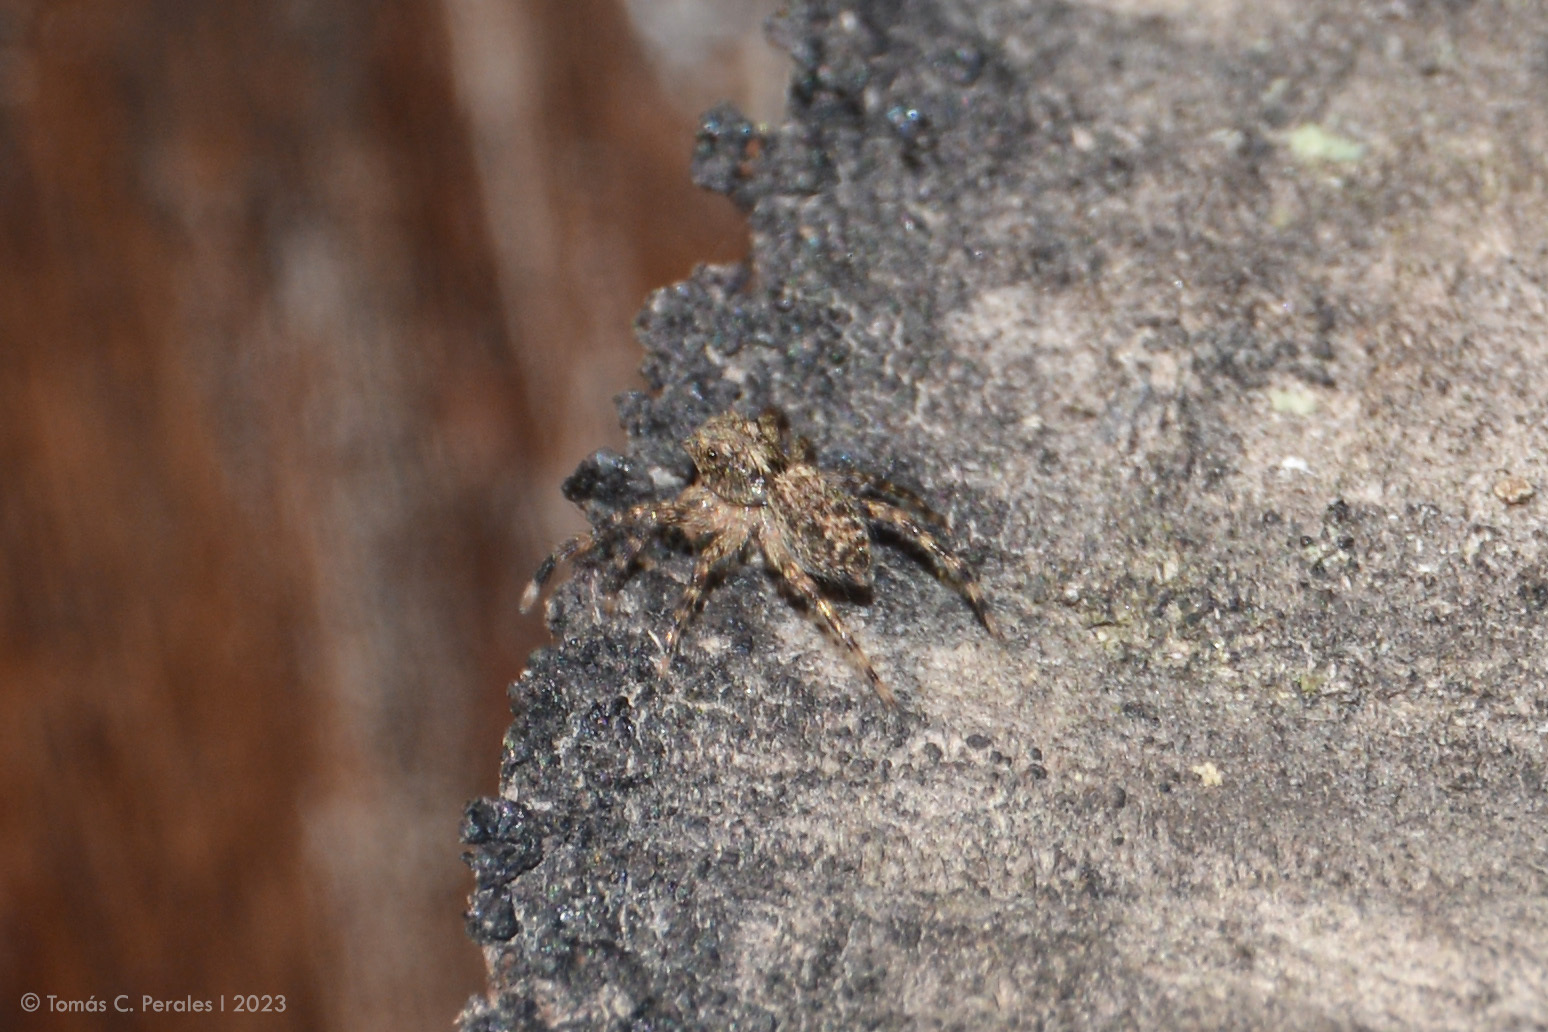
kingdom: Animalia
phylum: Arthropoda
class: Arachnida
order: Araneae
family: Salticidae
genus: Titanattus
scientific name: Titanattus andinus
